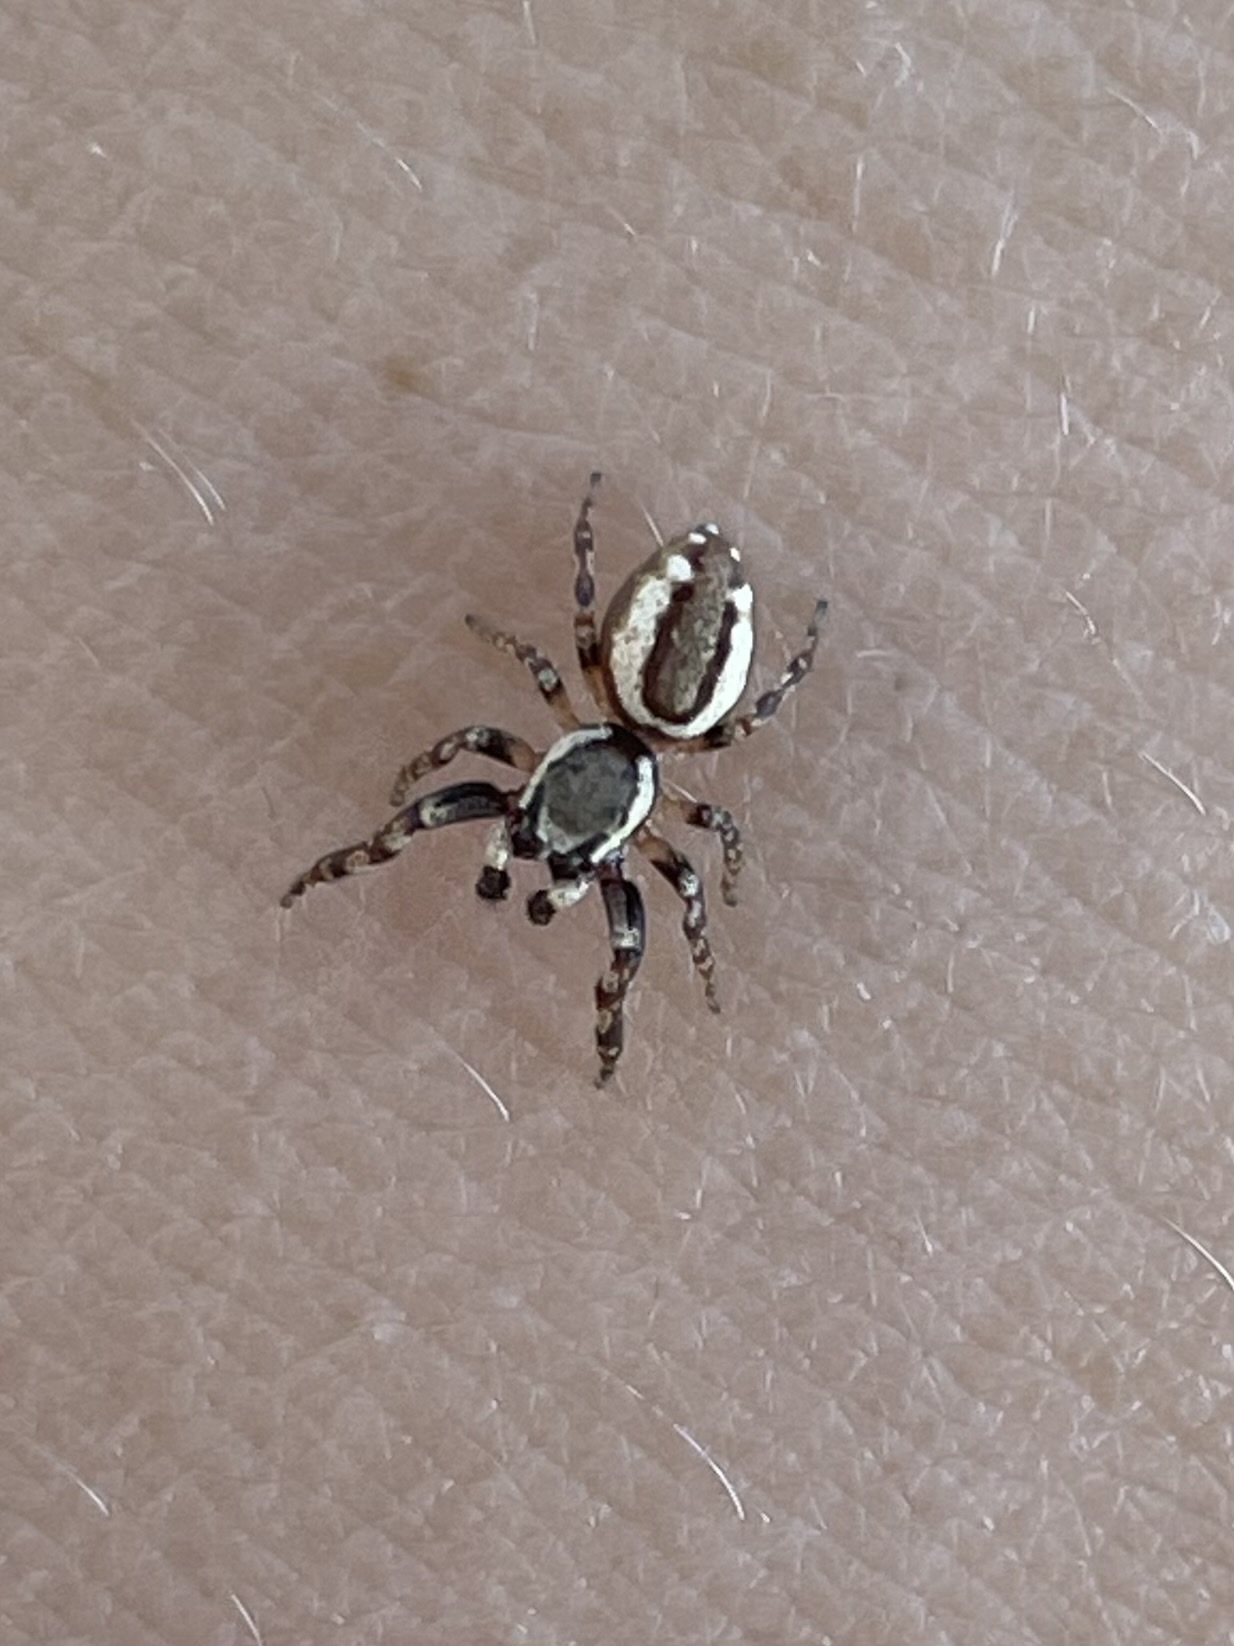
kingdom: Animalia
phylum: Arthropoda
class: Arachnida
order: Araneae
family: Salticidae
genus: Pelegrina
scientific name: Pelegrina proterva
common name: Common white-cheeked jumping spider
